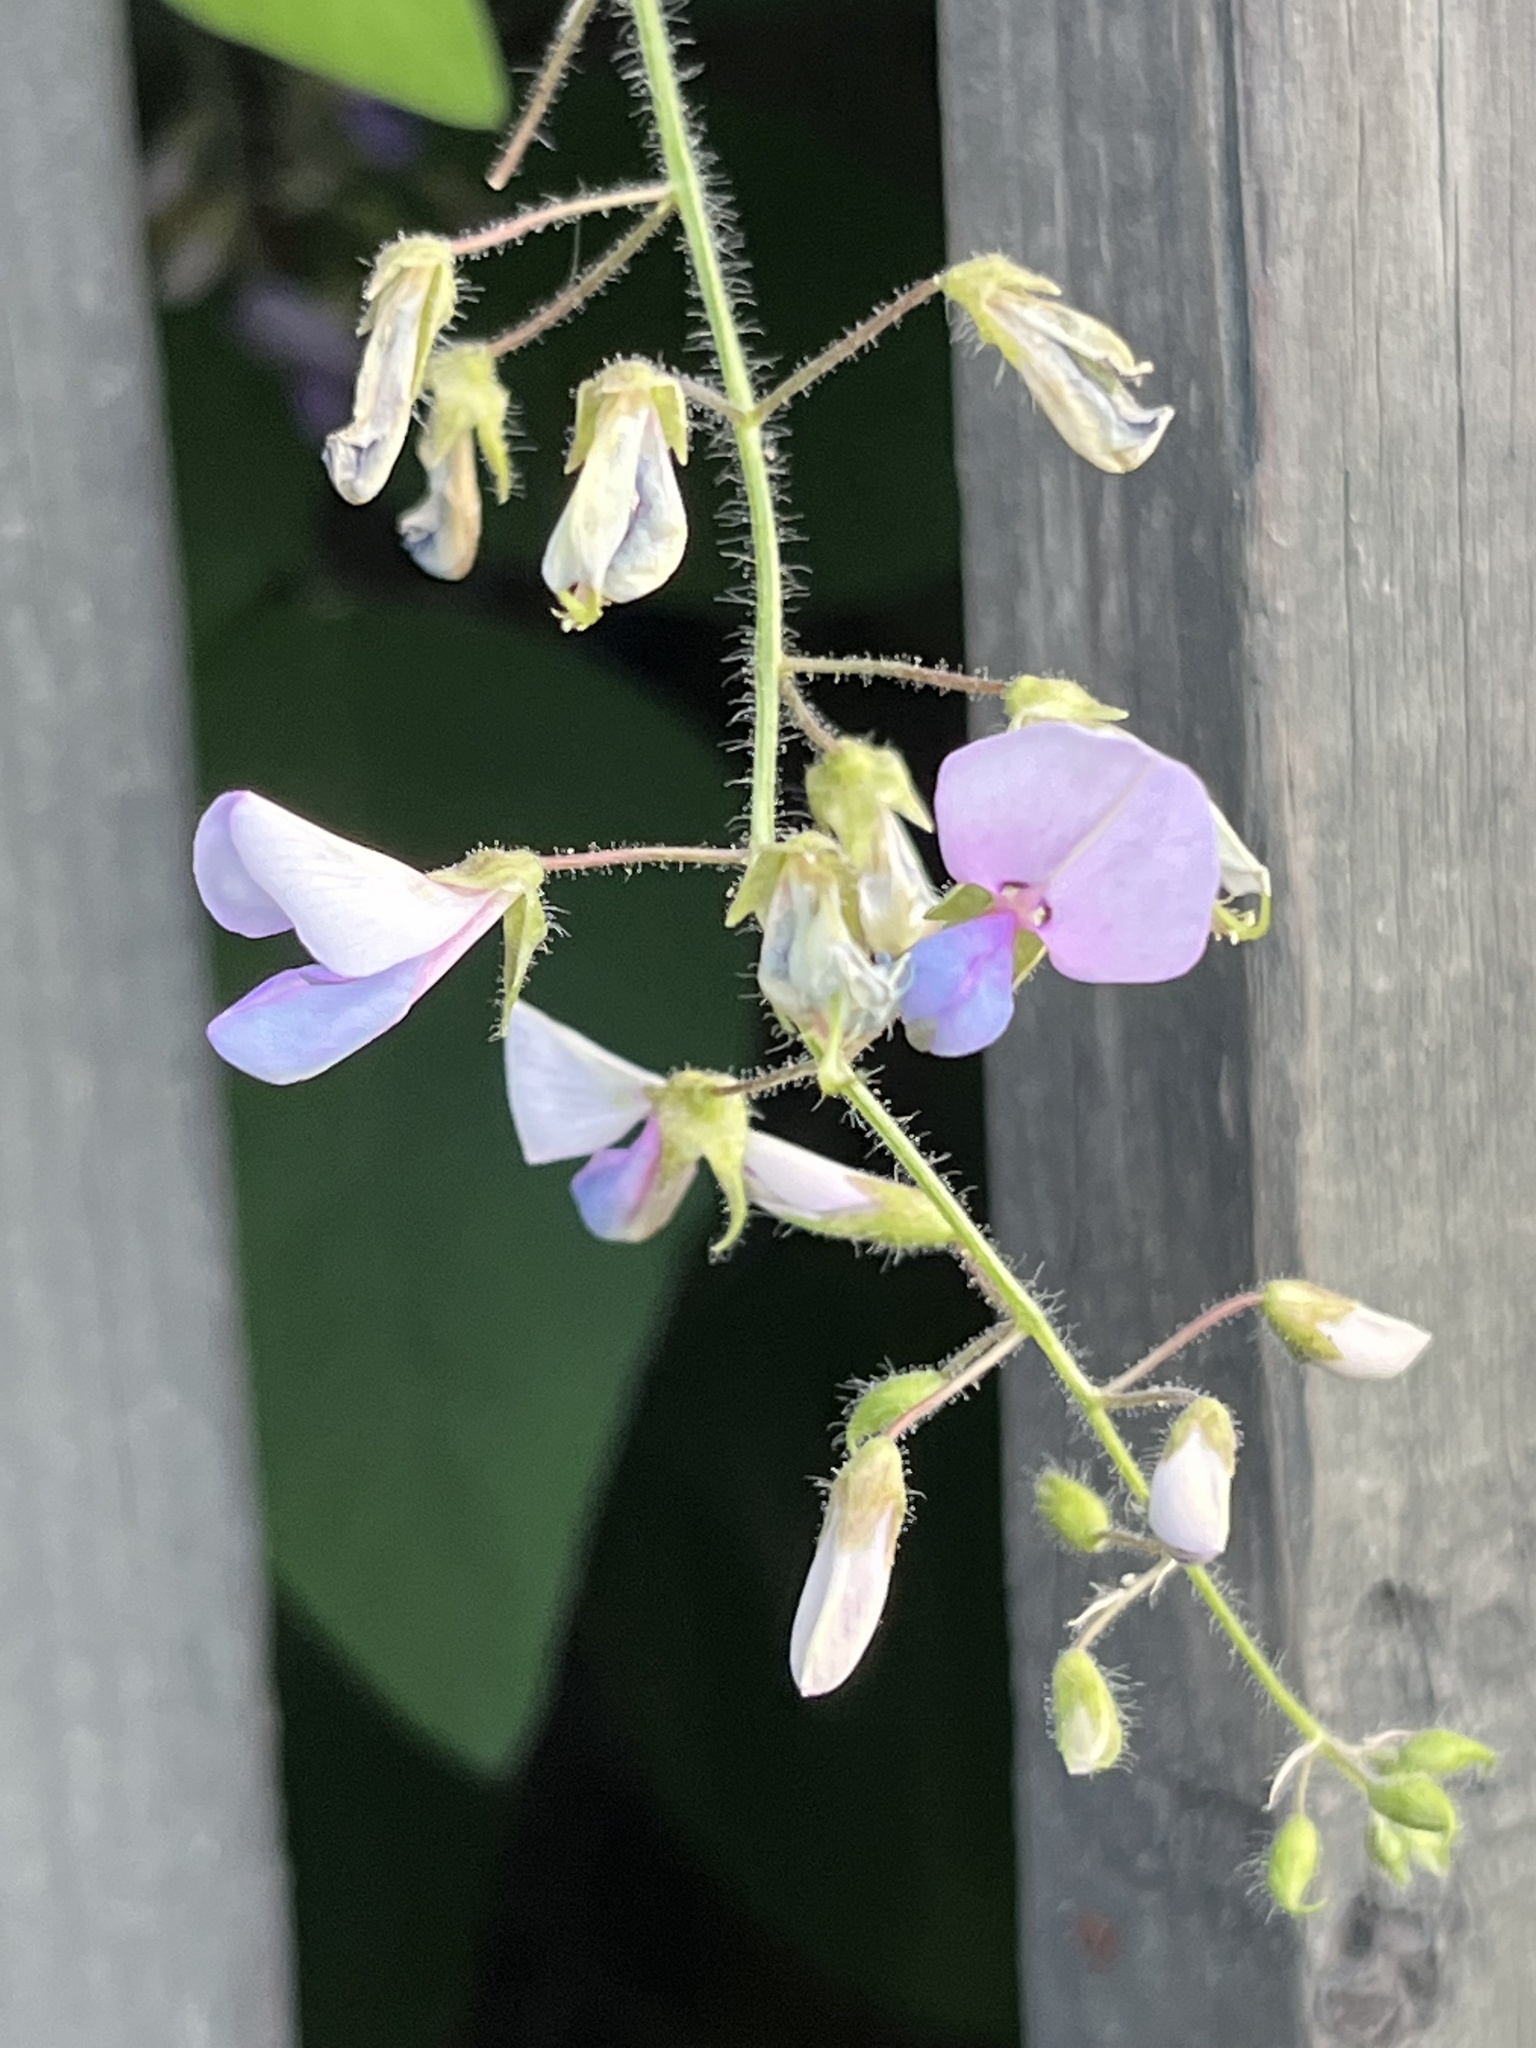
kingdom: Plantae
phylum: Tracheophyta
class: Magnoliopsida
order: Fabales
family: Fabaceae
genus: Desmodium
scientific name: Desmodium canescens
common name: Hoary tick-clover
